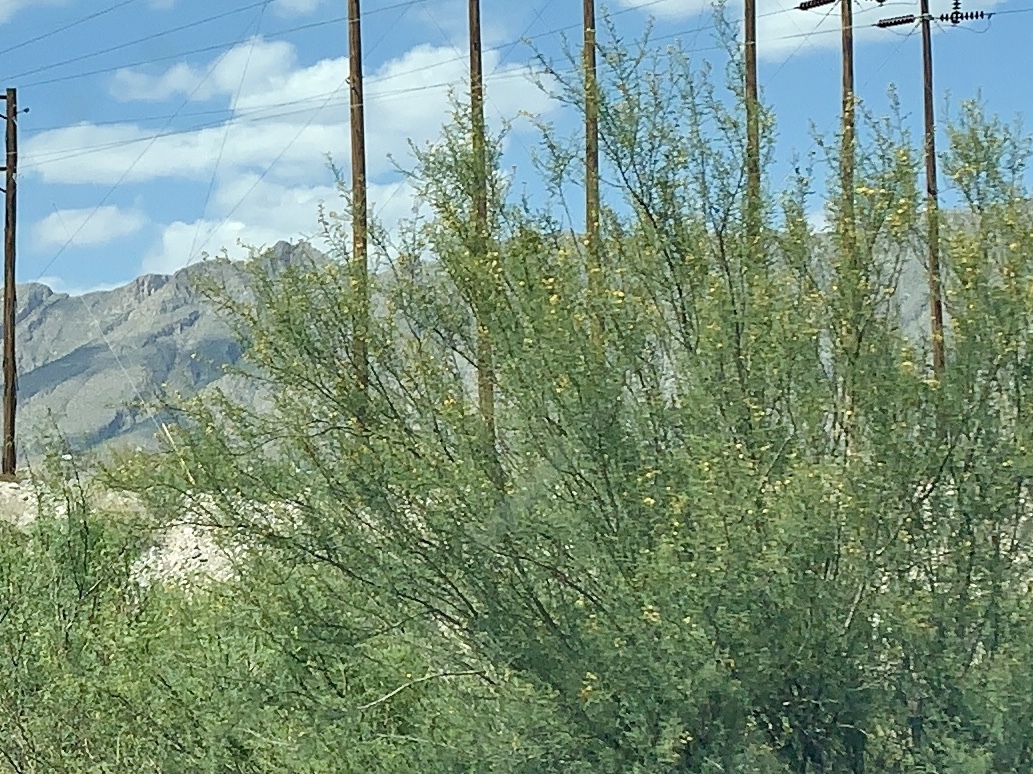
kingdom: Plantae
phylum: Tracheophyta
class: Magnoliopsida
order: Fabales
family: Fabaceae
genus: Parkinsonia
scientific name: Parkinsonia aculeata
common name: Jerusalem thorn
